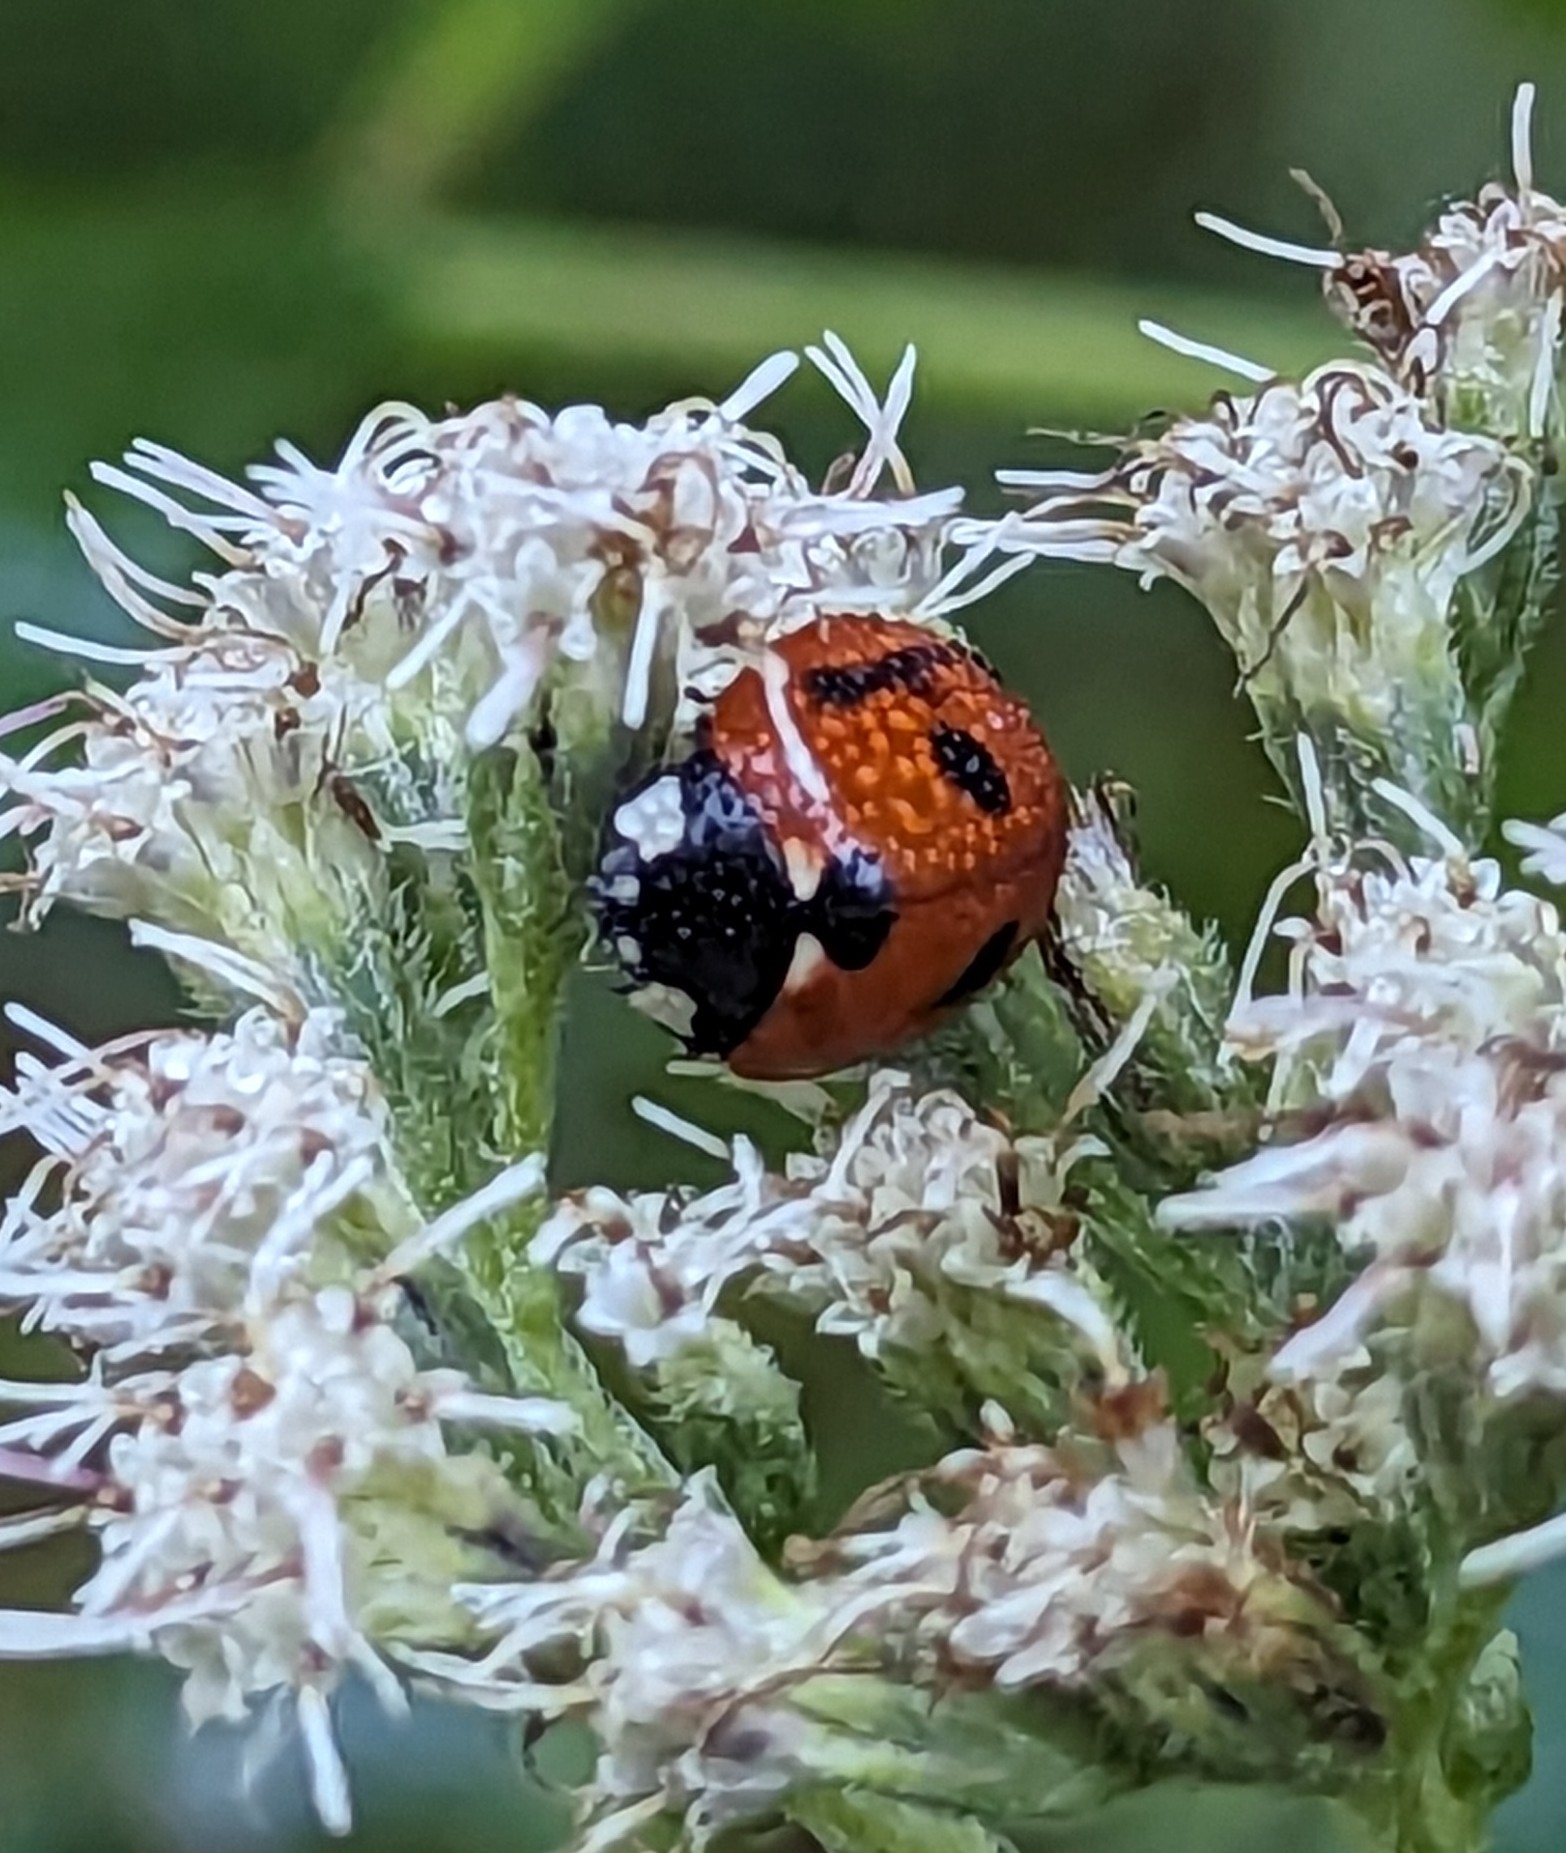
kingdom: Animalia
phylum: Arthropoda
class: Insecta
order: Coleoptera
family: Coccinellidae
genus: Coccinella
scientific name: Coccinella septempunctata
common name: Sevenspotted lady beetle
